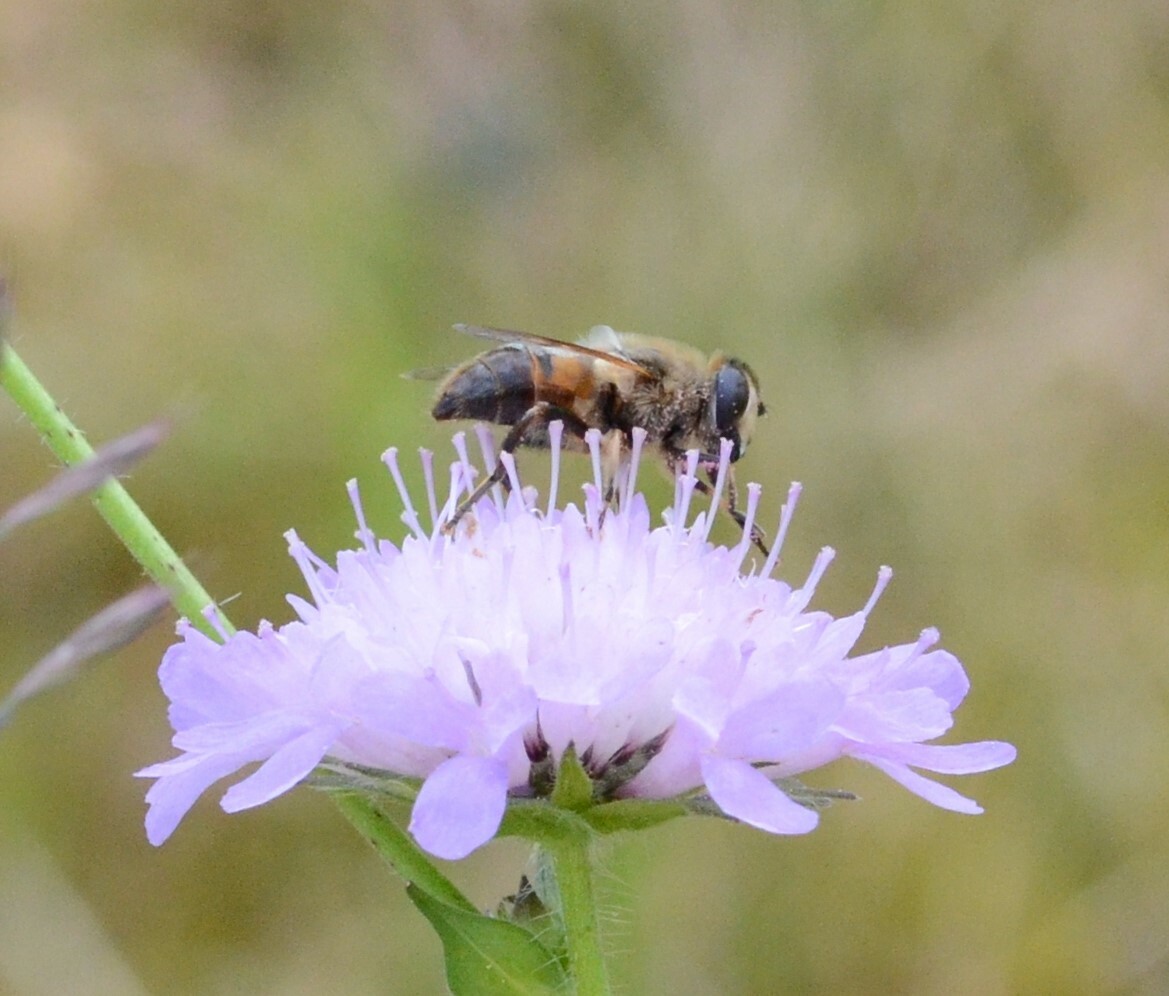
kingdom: Animalia
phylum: Arthropoda
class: Insecta
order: Diptera
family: Syrphidae
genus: Eristalis
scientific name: Eristalis tenax
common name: Drone fly
